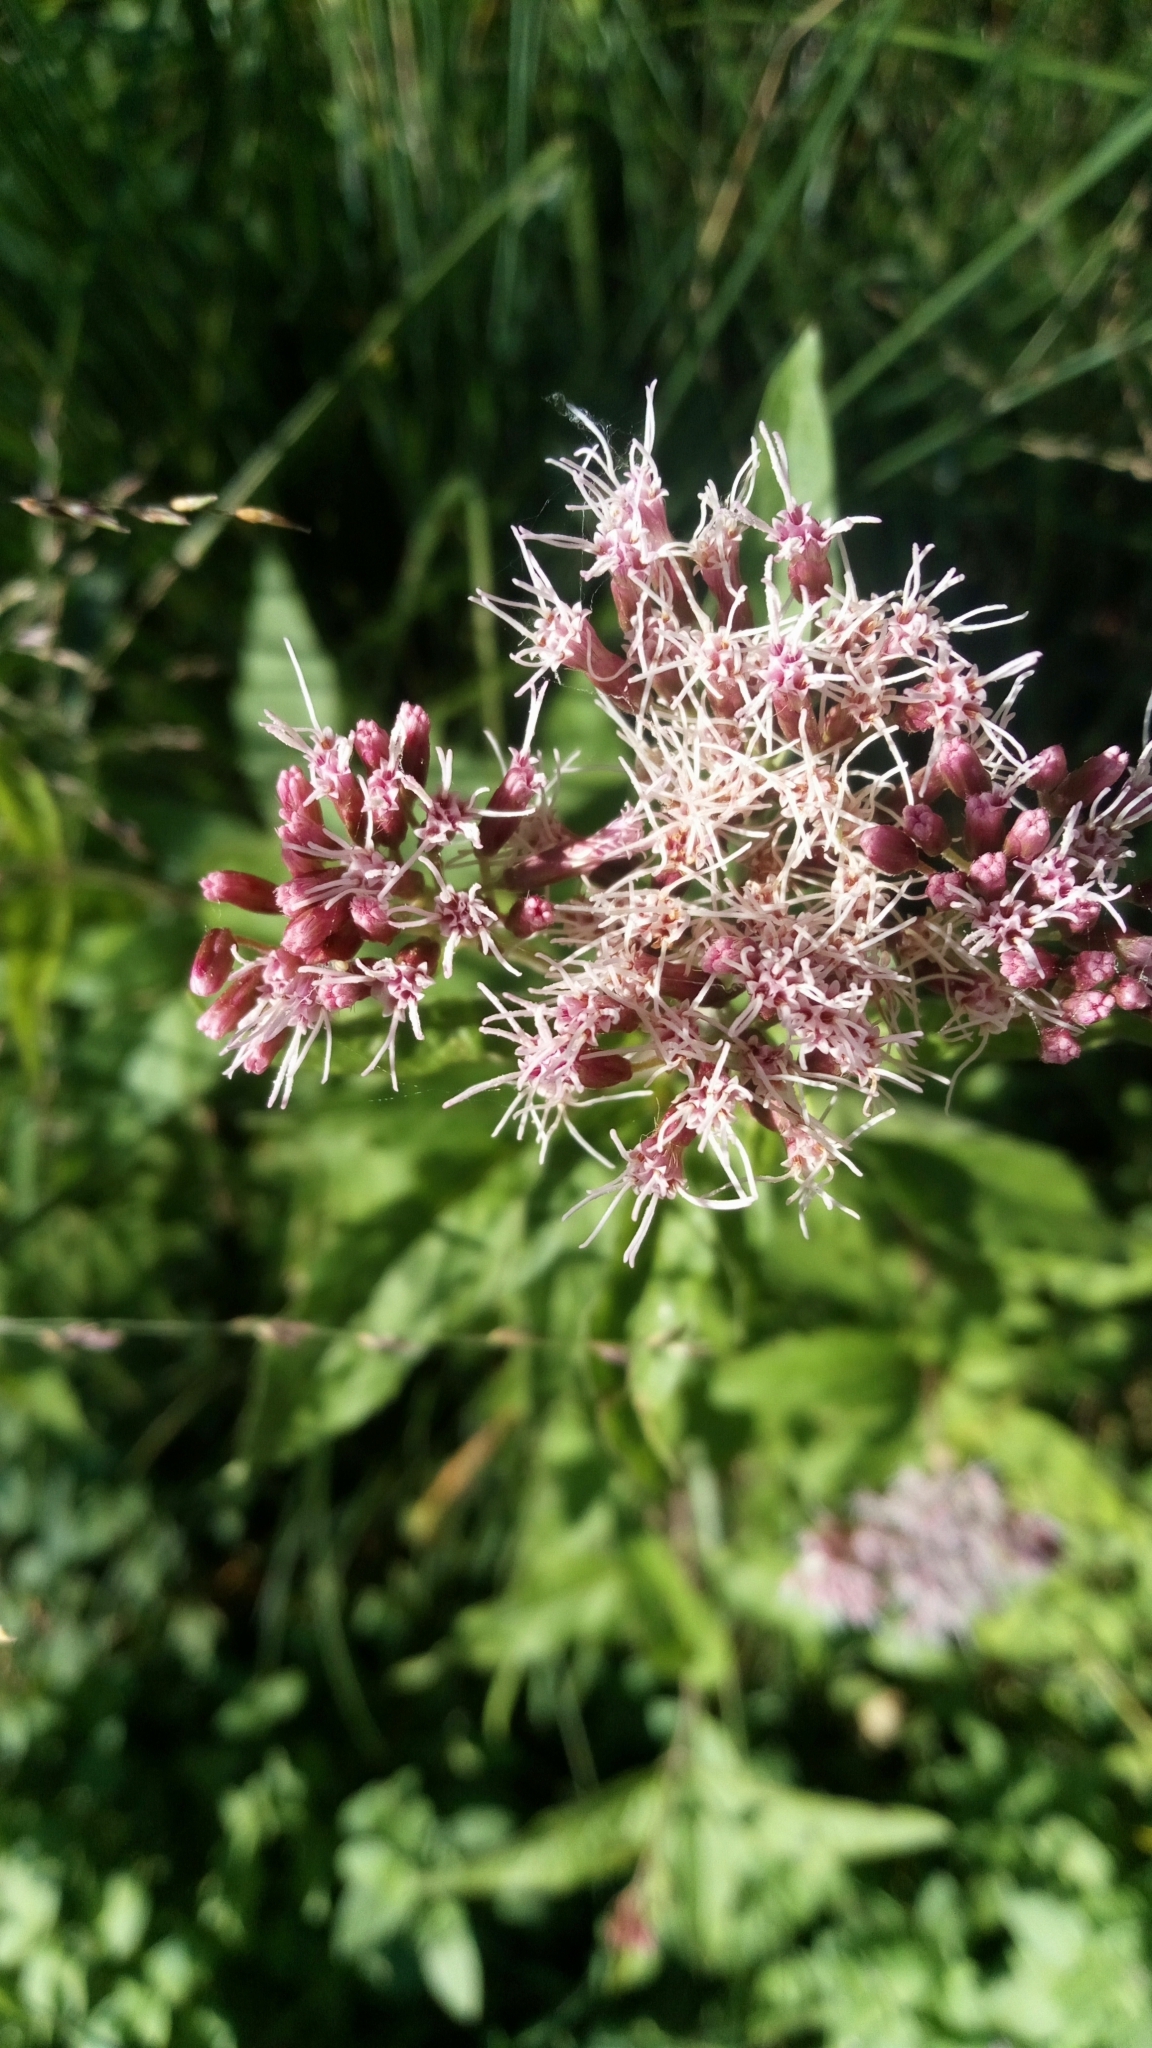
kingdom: Plantae
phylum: Tracheophyta
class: Magnoliopsida
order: Asterales
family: Asteraceae
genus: Eupatorium
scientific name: Eupatorium cannabinum
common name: Hemp-agrimony
